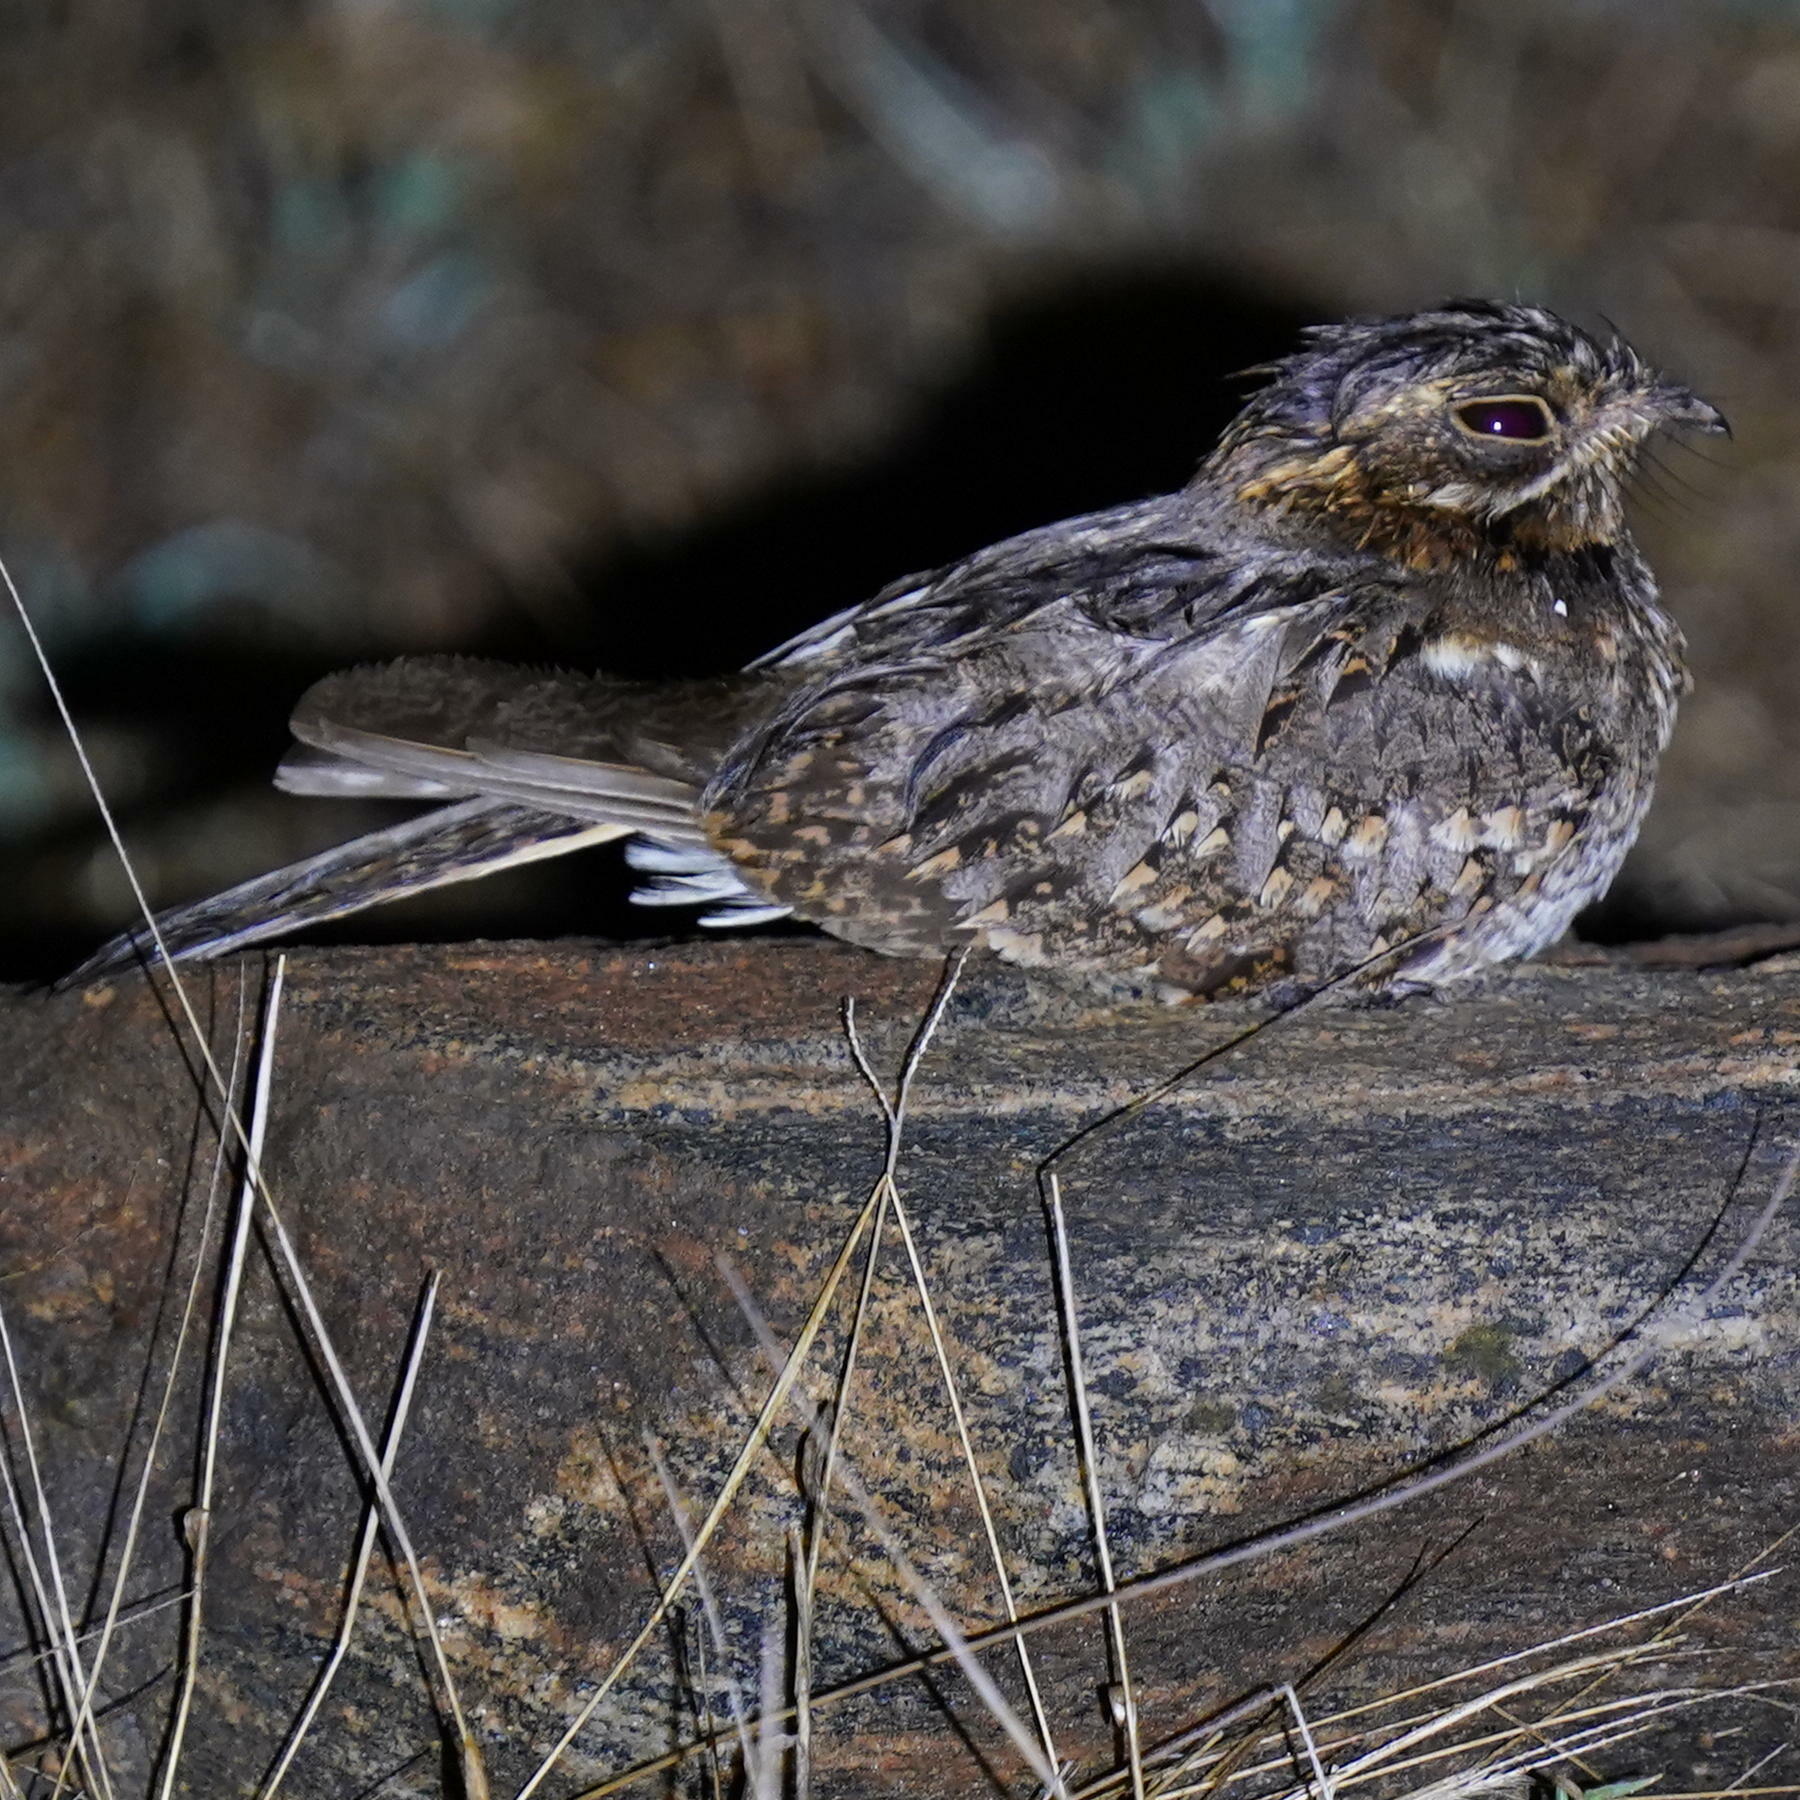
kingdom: Animalia
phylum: Chordata
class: Aves
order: Caprimulgiformes
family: Caprimulgidae
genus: Caprimulgus
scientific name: Caprimulgus asiaticus
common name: Indian nightjar
